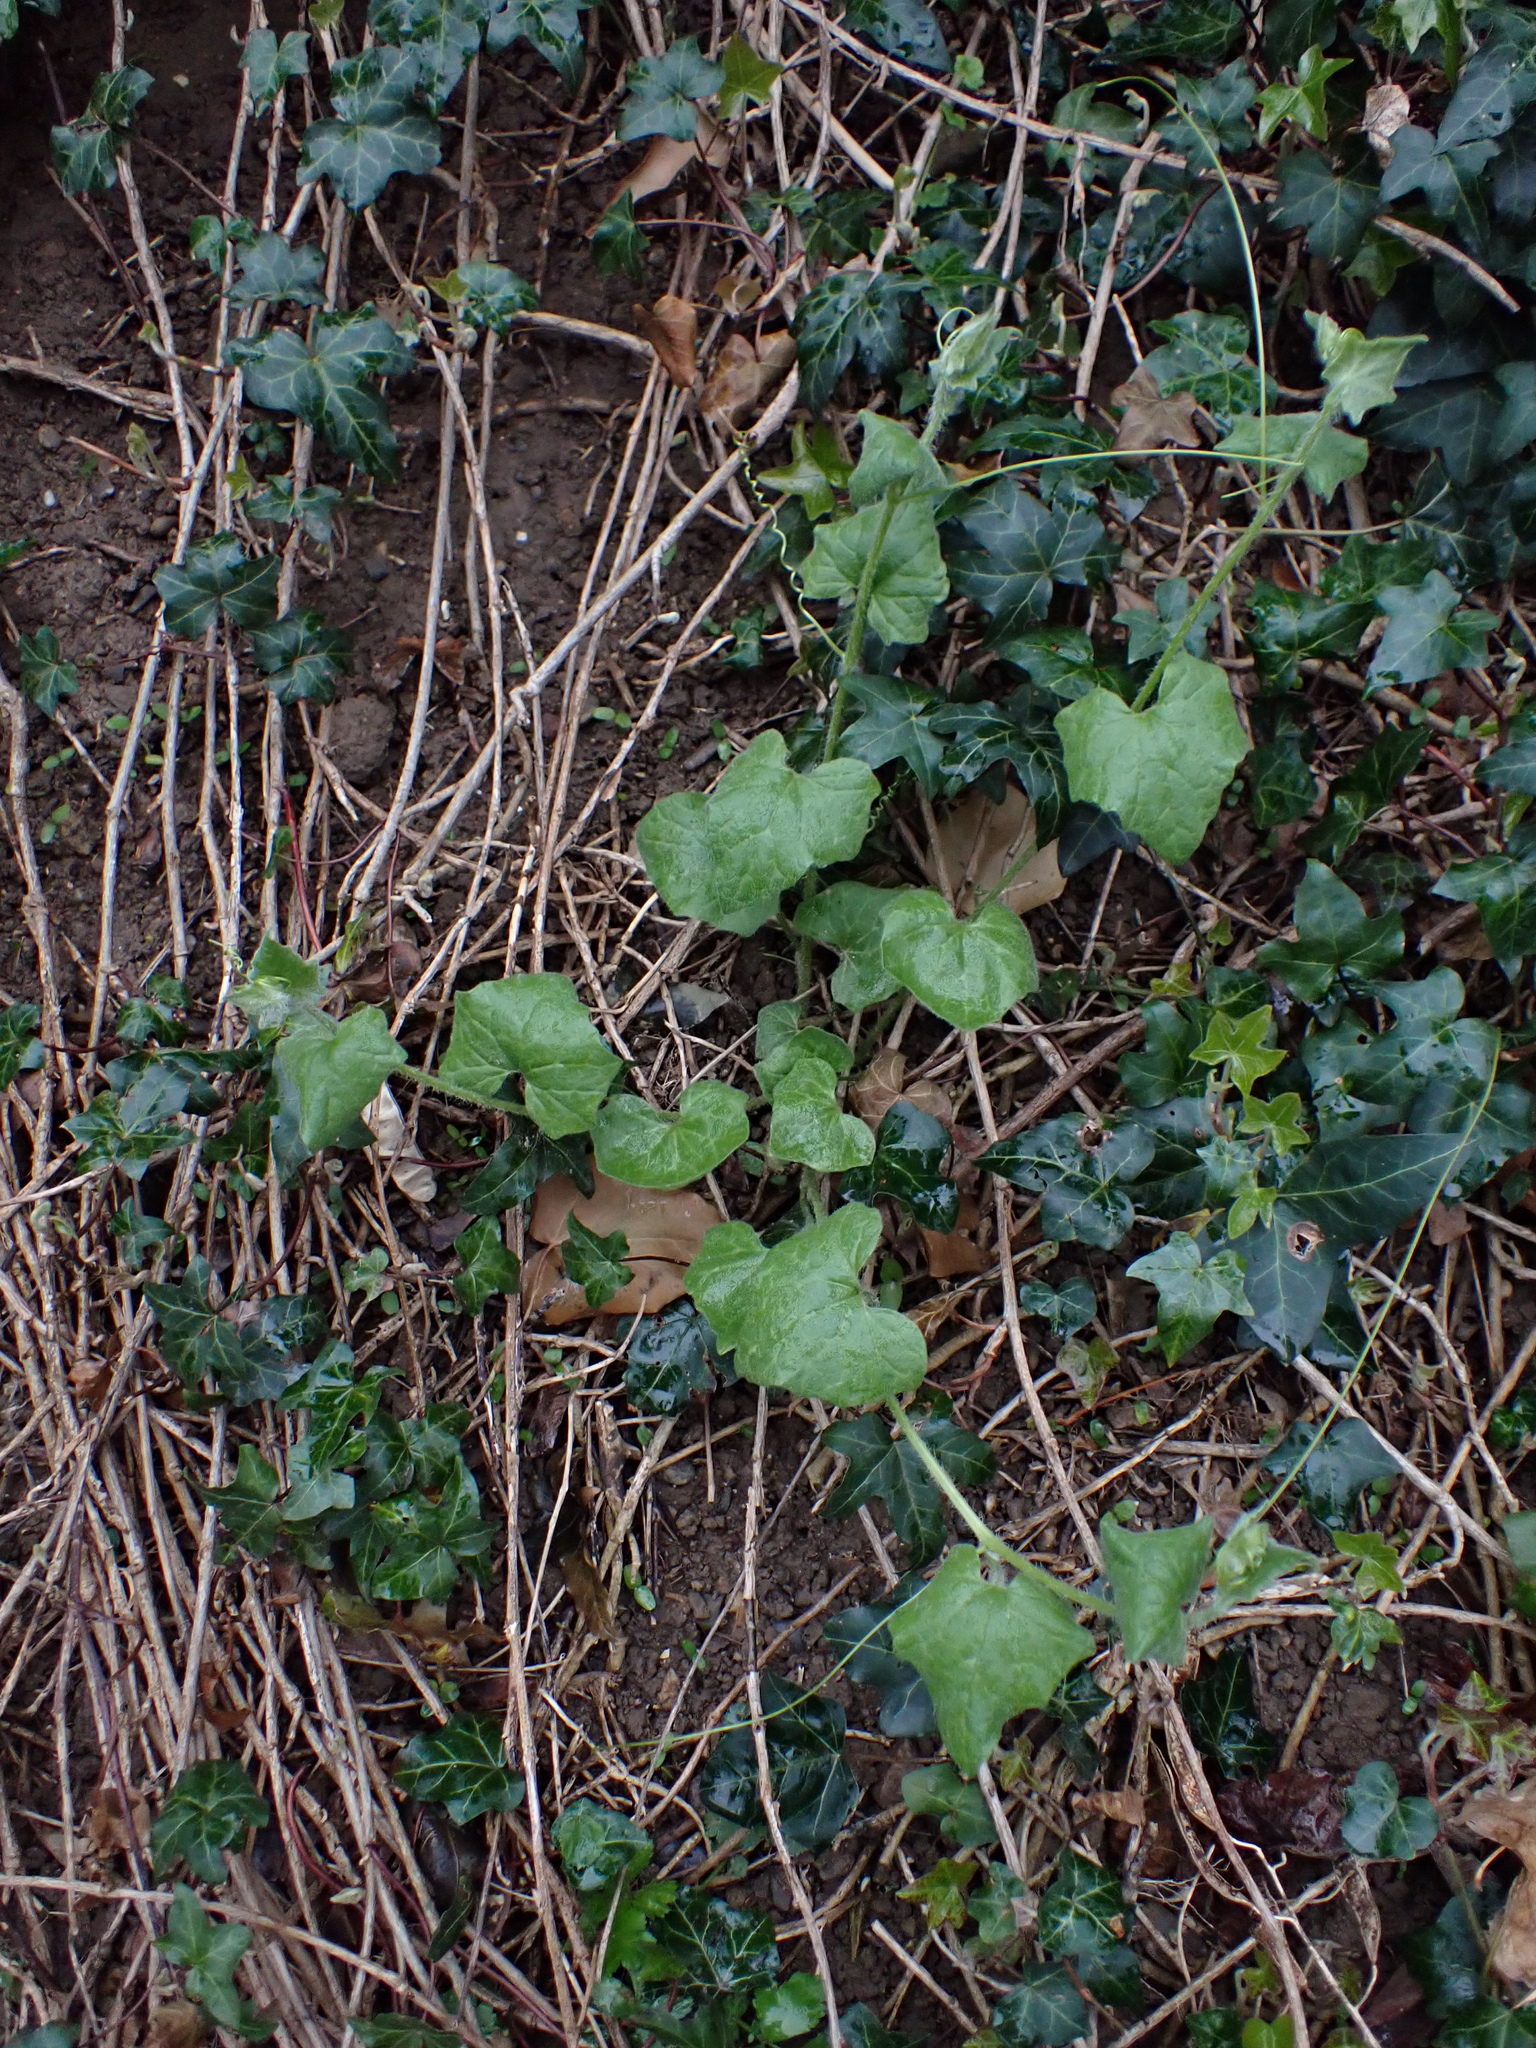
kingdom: Plantae
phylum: Tracheophyta
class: Magnoliopsida
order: Cucurbitales
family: Cucurbitaceae
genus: Bryonia
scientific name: Bryonia dioica
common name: White bryony
